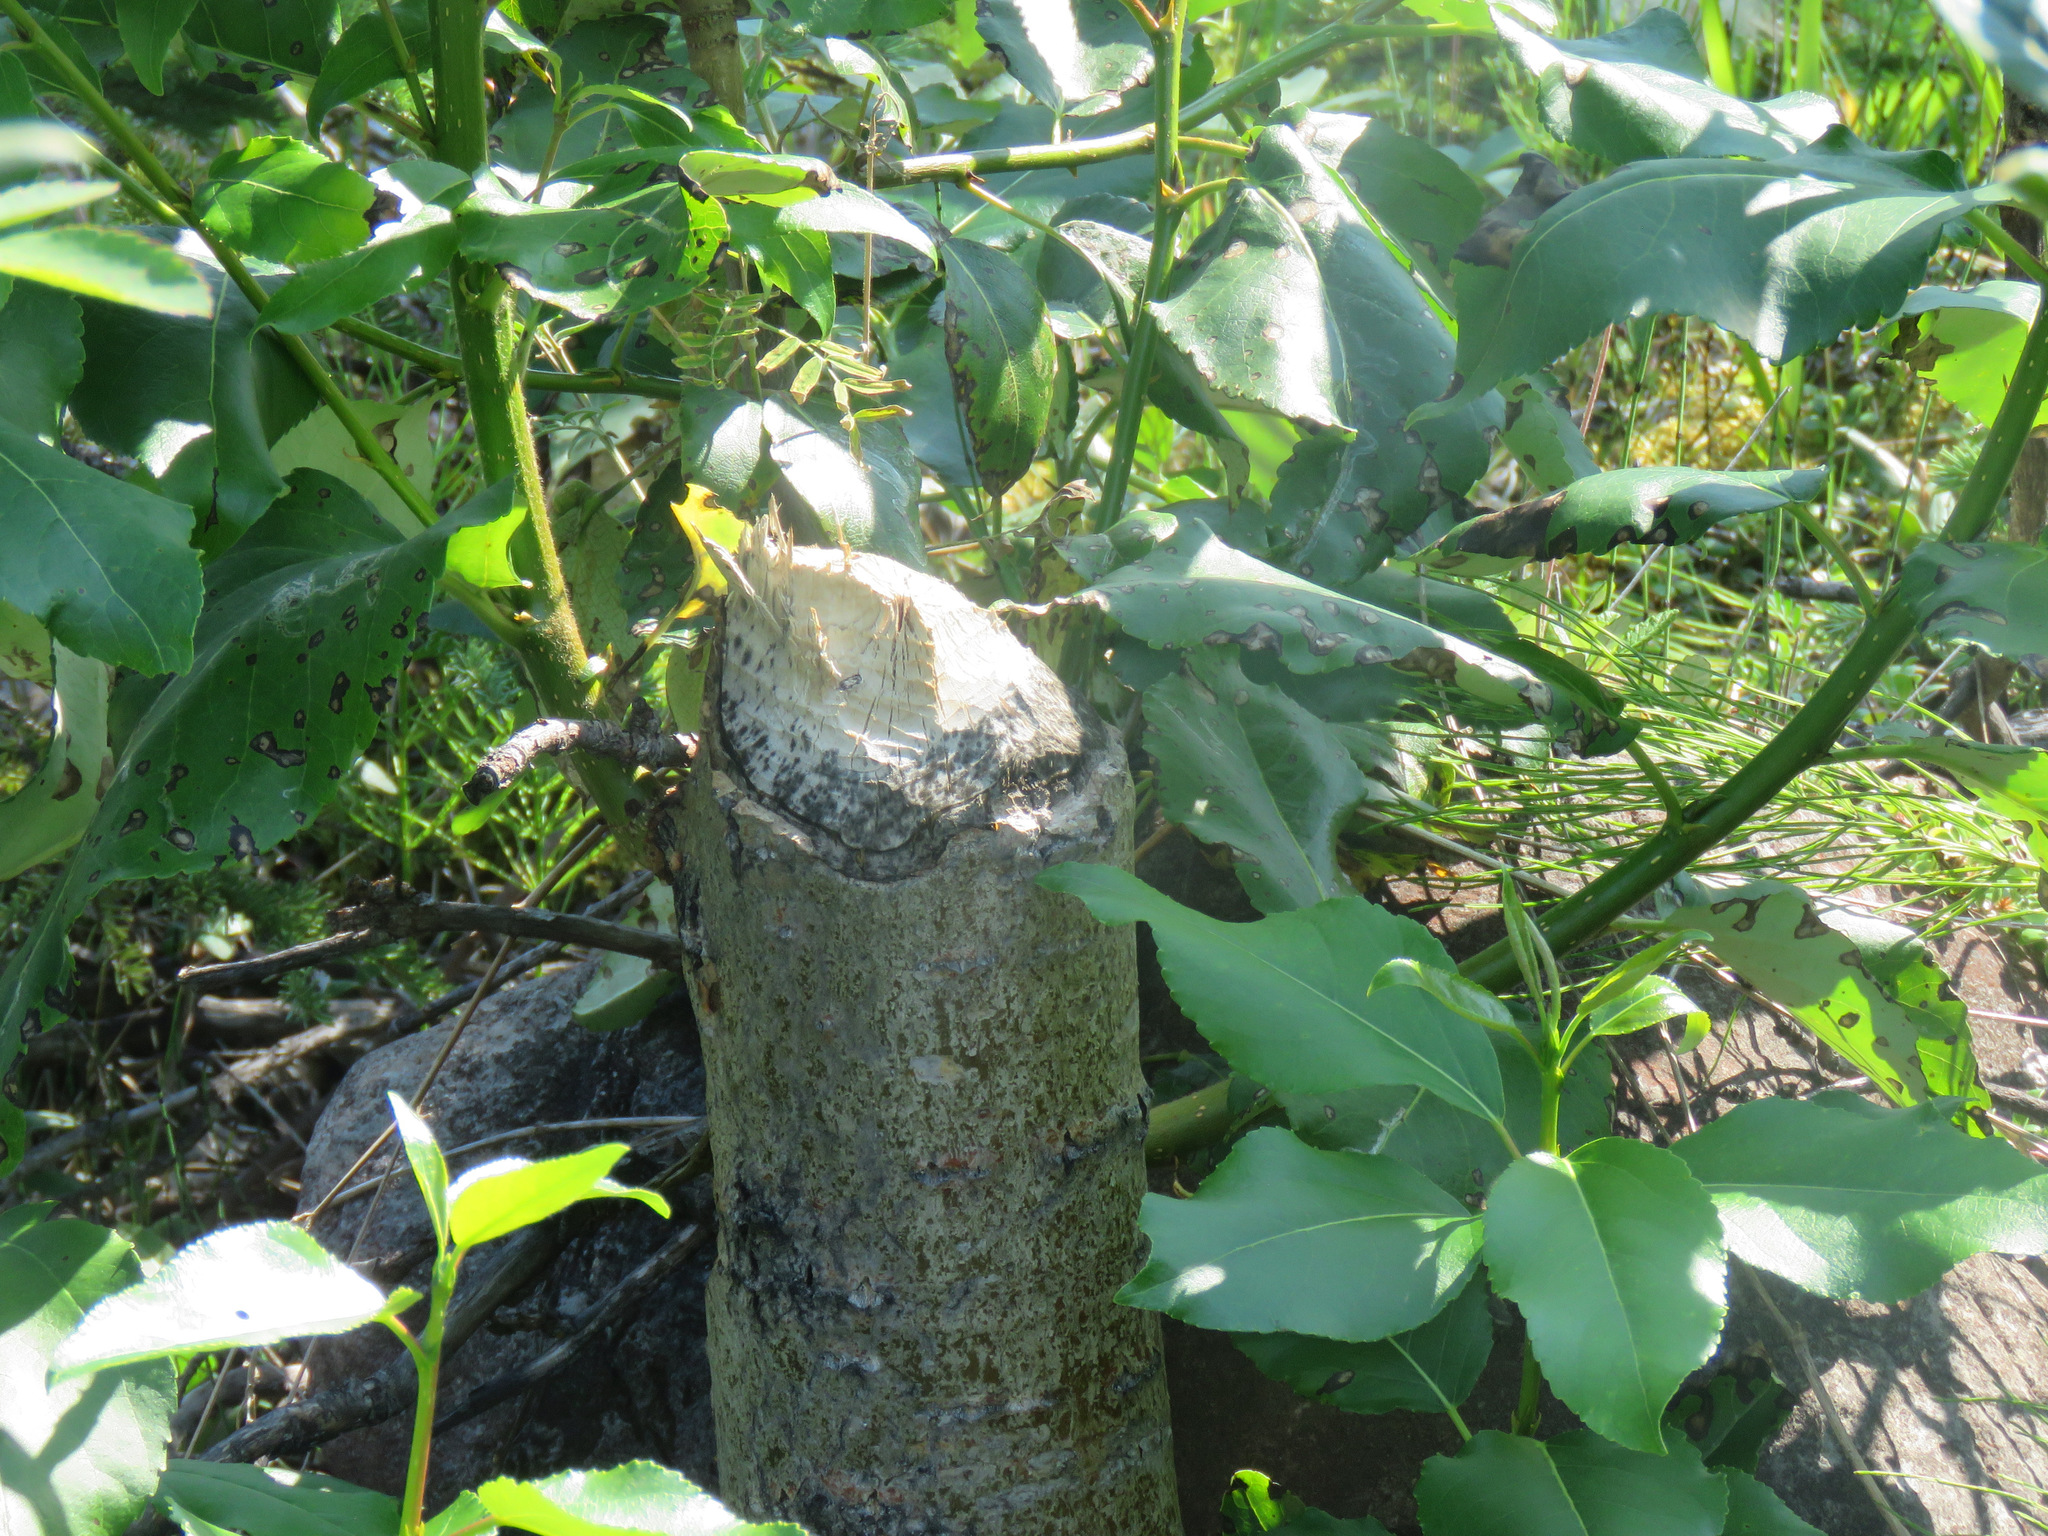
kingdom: Animalia
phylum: Chordata
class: Mammalia
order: Rodentia
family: Castoridae
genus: Castor
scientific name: Castor canadensis
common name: American beaver
